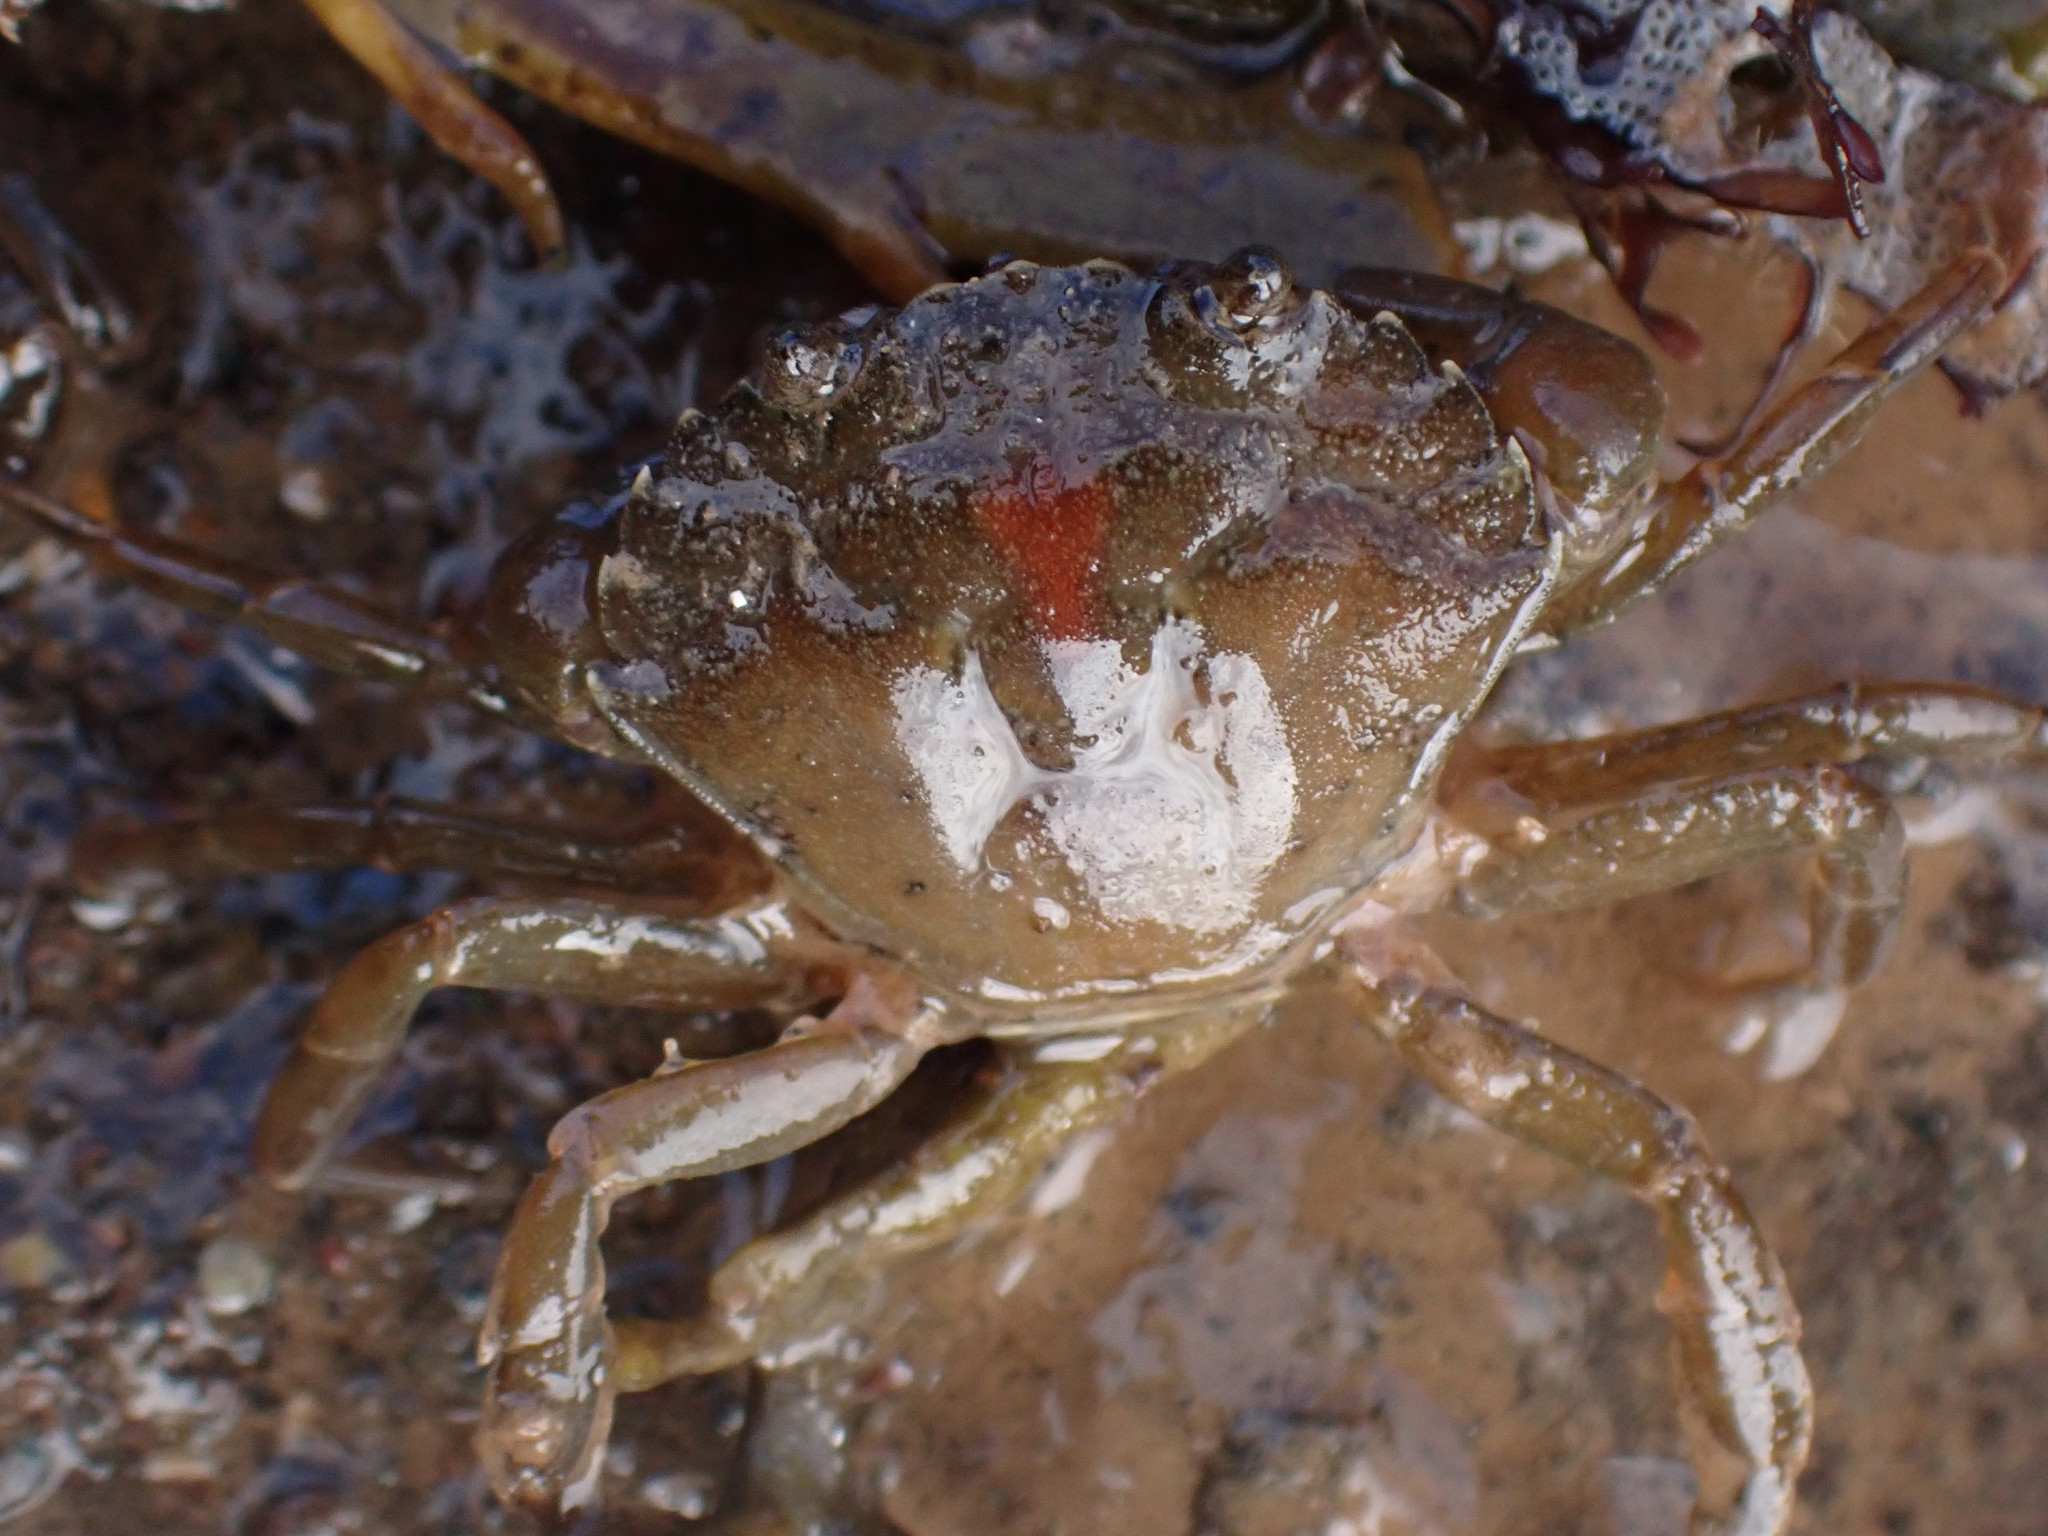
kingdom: Animalia
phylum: Arthropoda
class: Malacostraca
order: Decapoda
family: Carcinidae
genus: Carcinus
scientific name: Carcinus maenas
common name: European green crab
